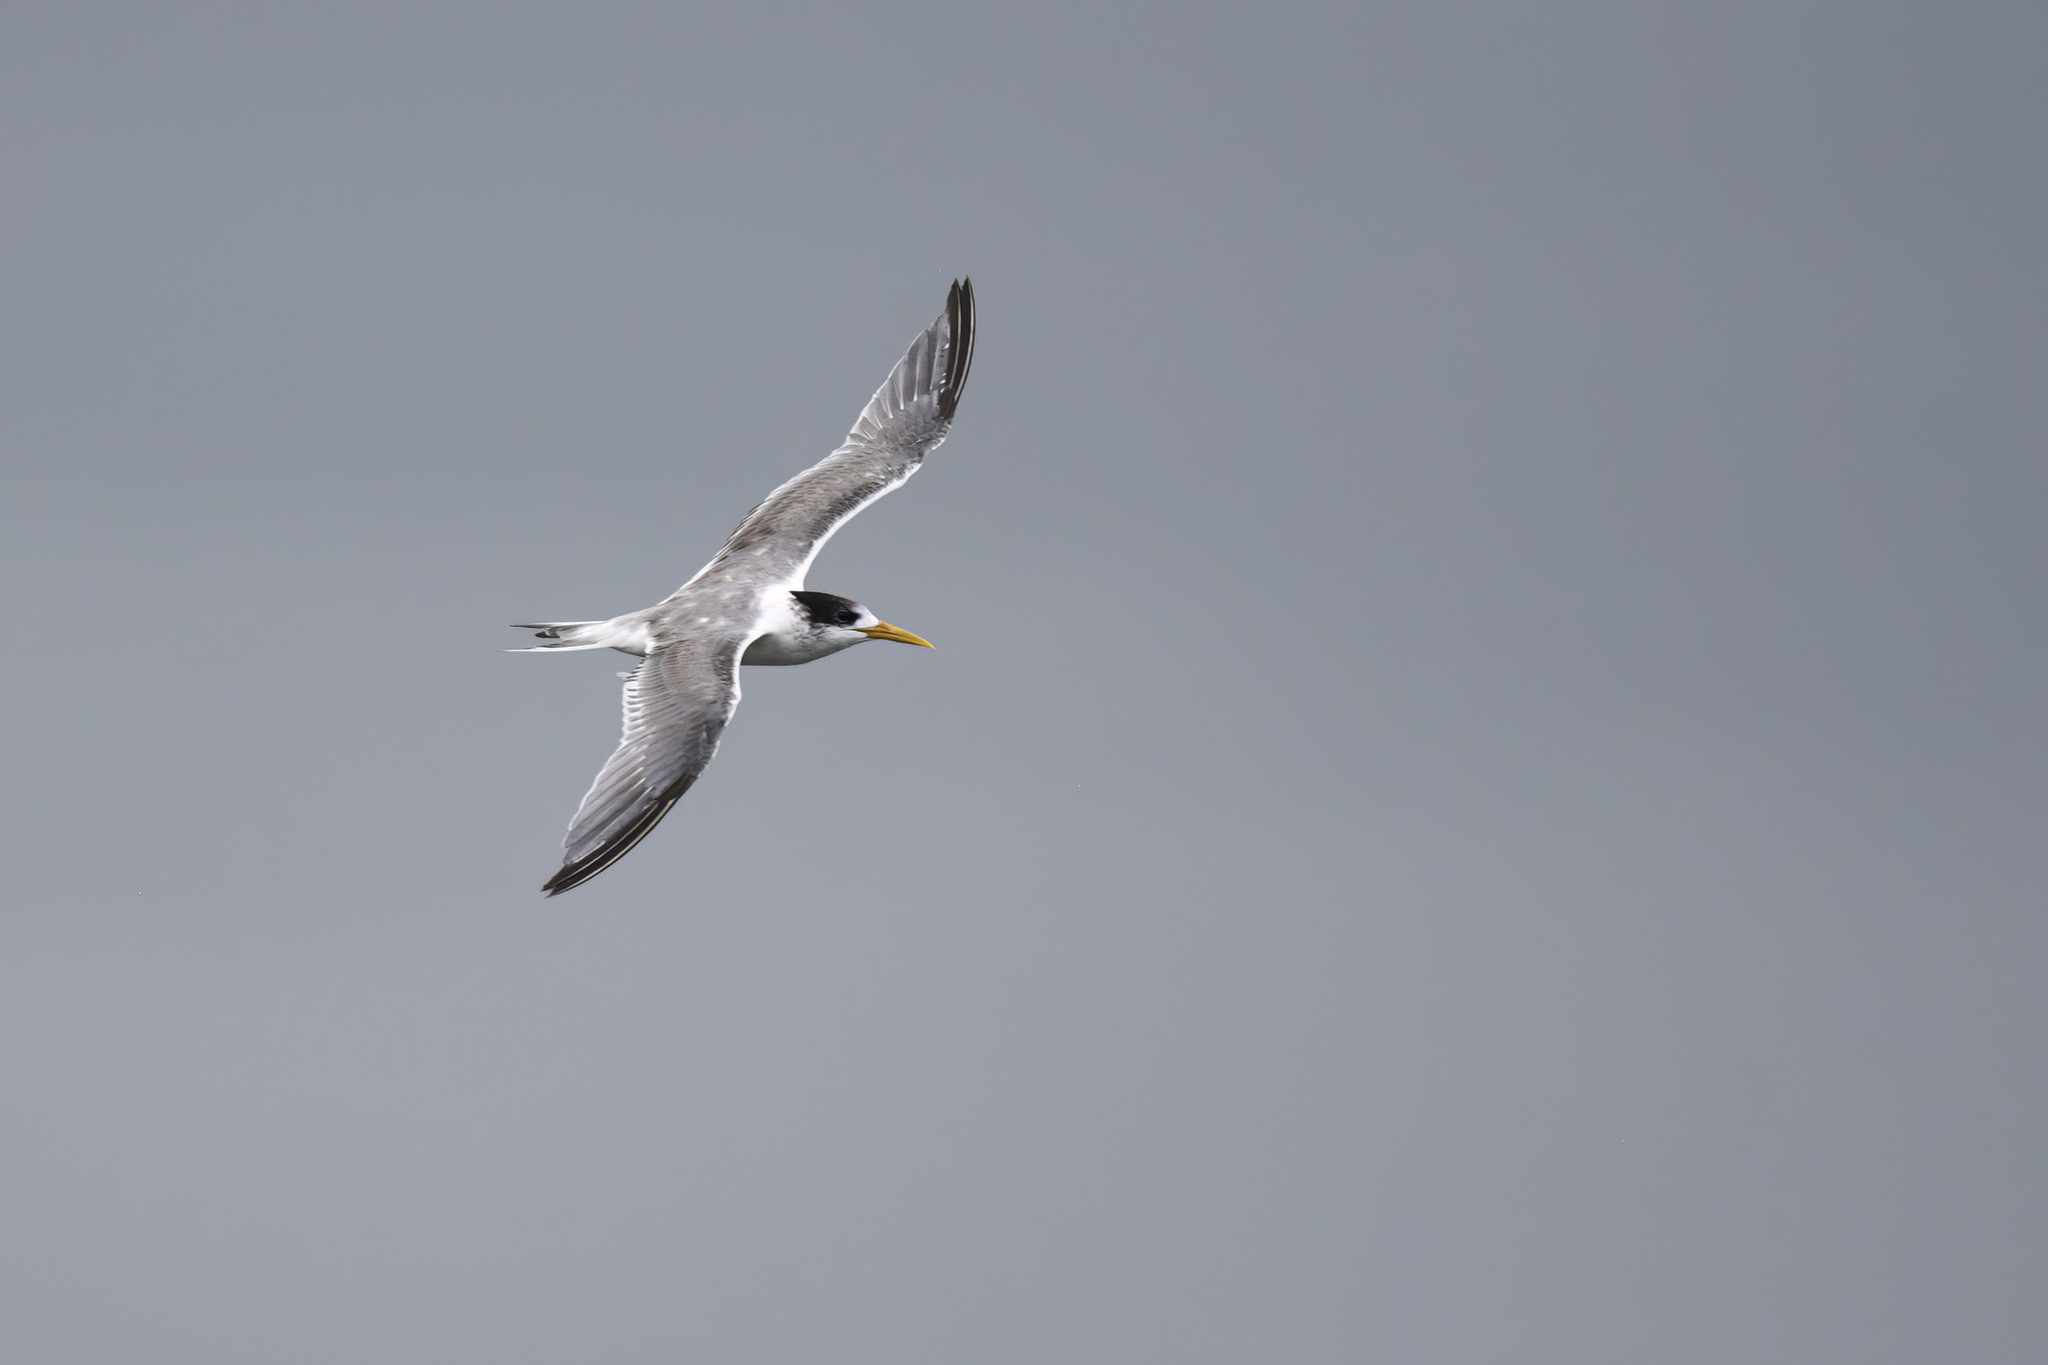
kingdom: Animalia
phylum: Chordata
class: Aves
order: Charadriiformes
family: Laridae
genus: Thalasseus
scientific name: Thalasseus bergii
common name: Greater crested tern
